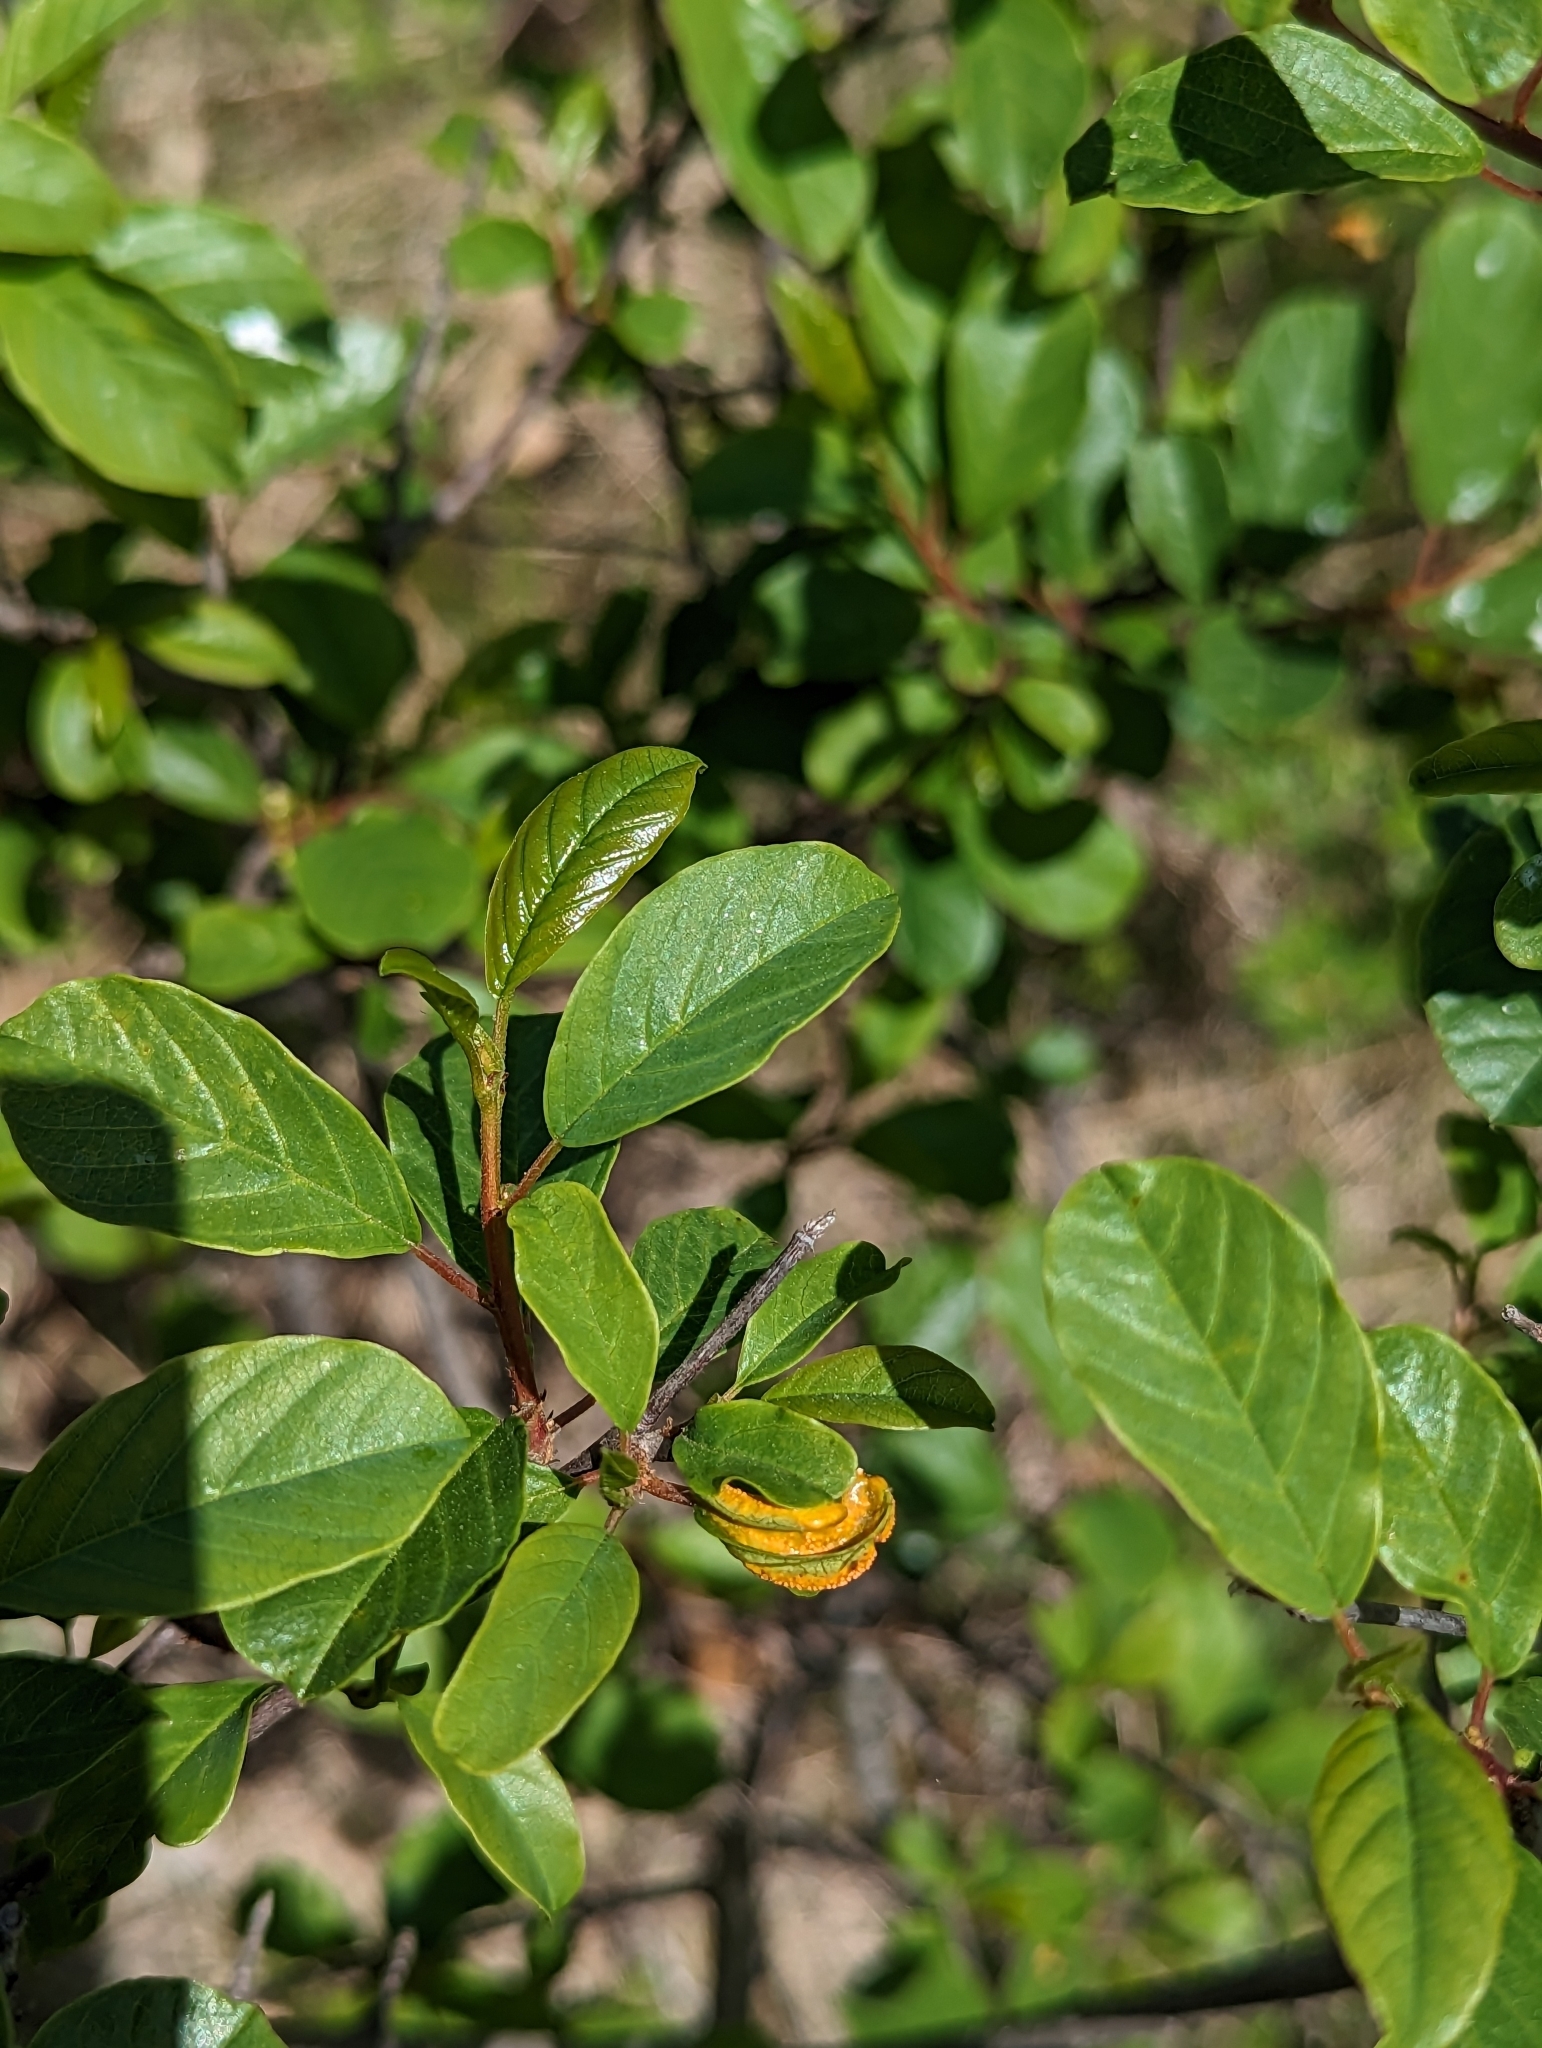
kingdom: Plantae
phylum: Tracheophyta
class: Magnoliopsida
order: Rosales
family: Rhamnaceae
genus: Frangula
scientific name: Frangula alnus
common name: Alder buckthorn
